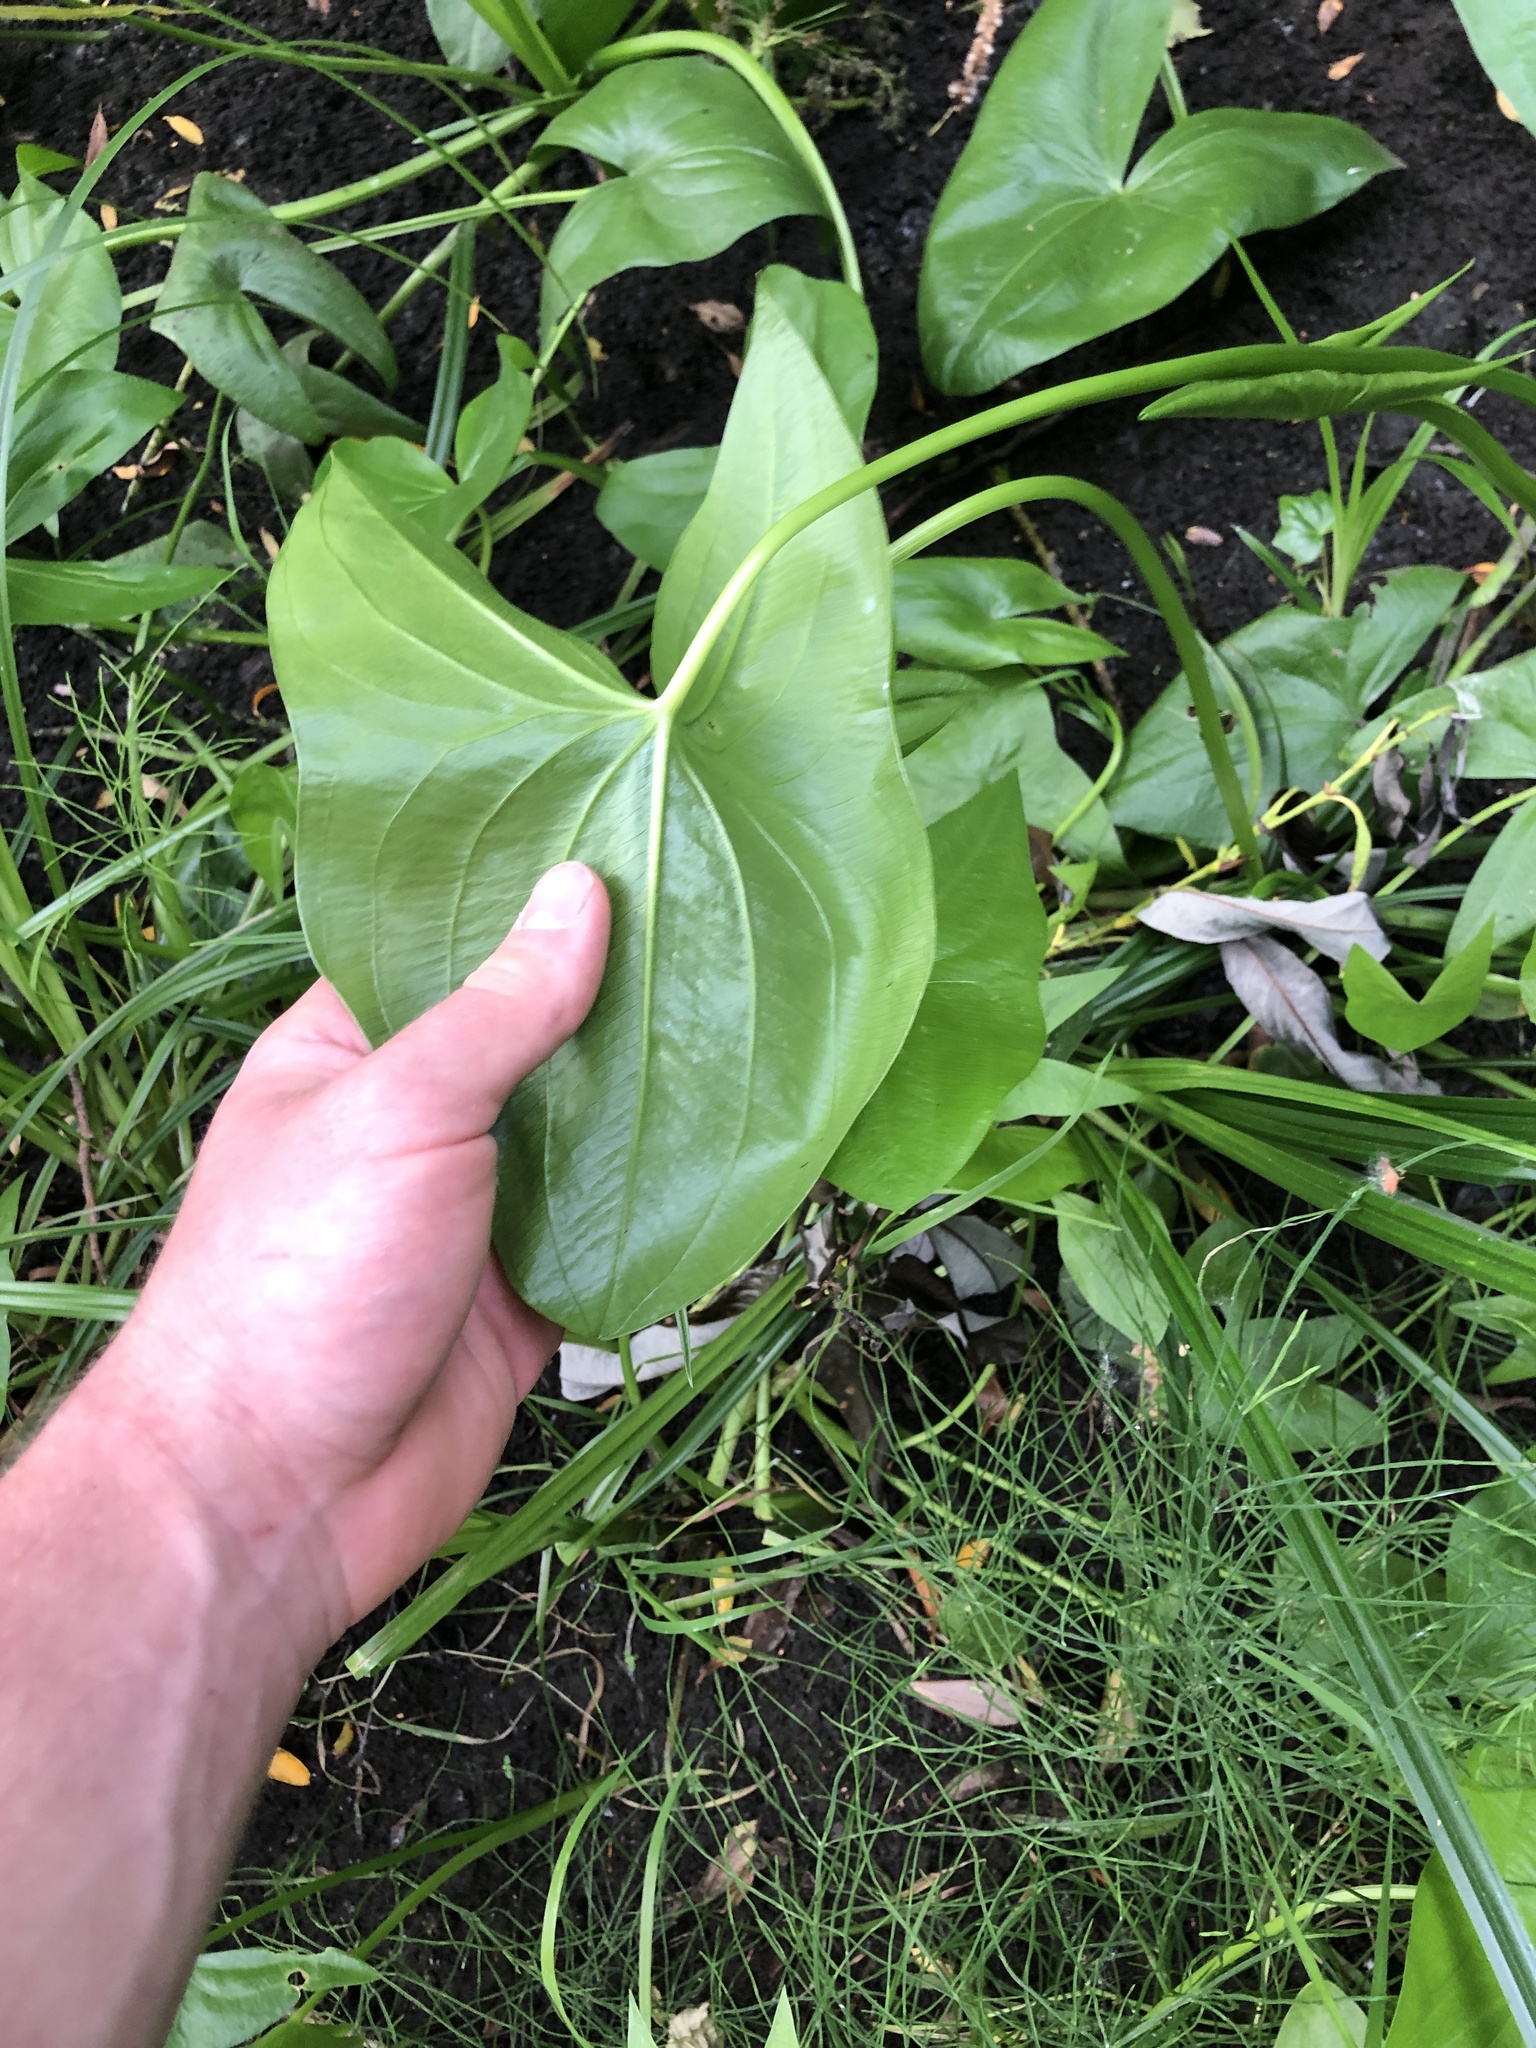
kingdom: Plantae
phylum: Tracheophyta
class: Liliopsida
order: Alismatales
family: Alismataceae
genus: Sagittaria
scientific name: Sagittaria latifolia
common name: Duck-potato
